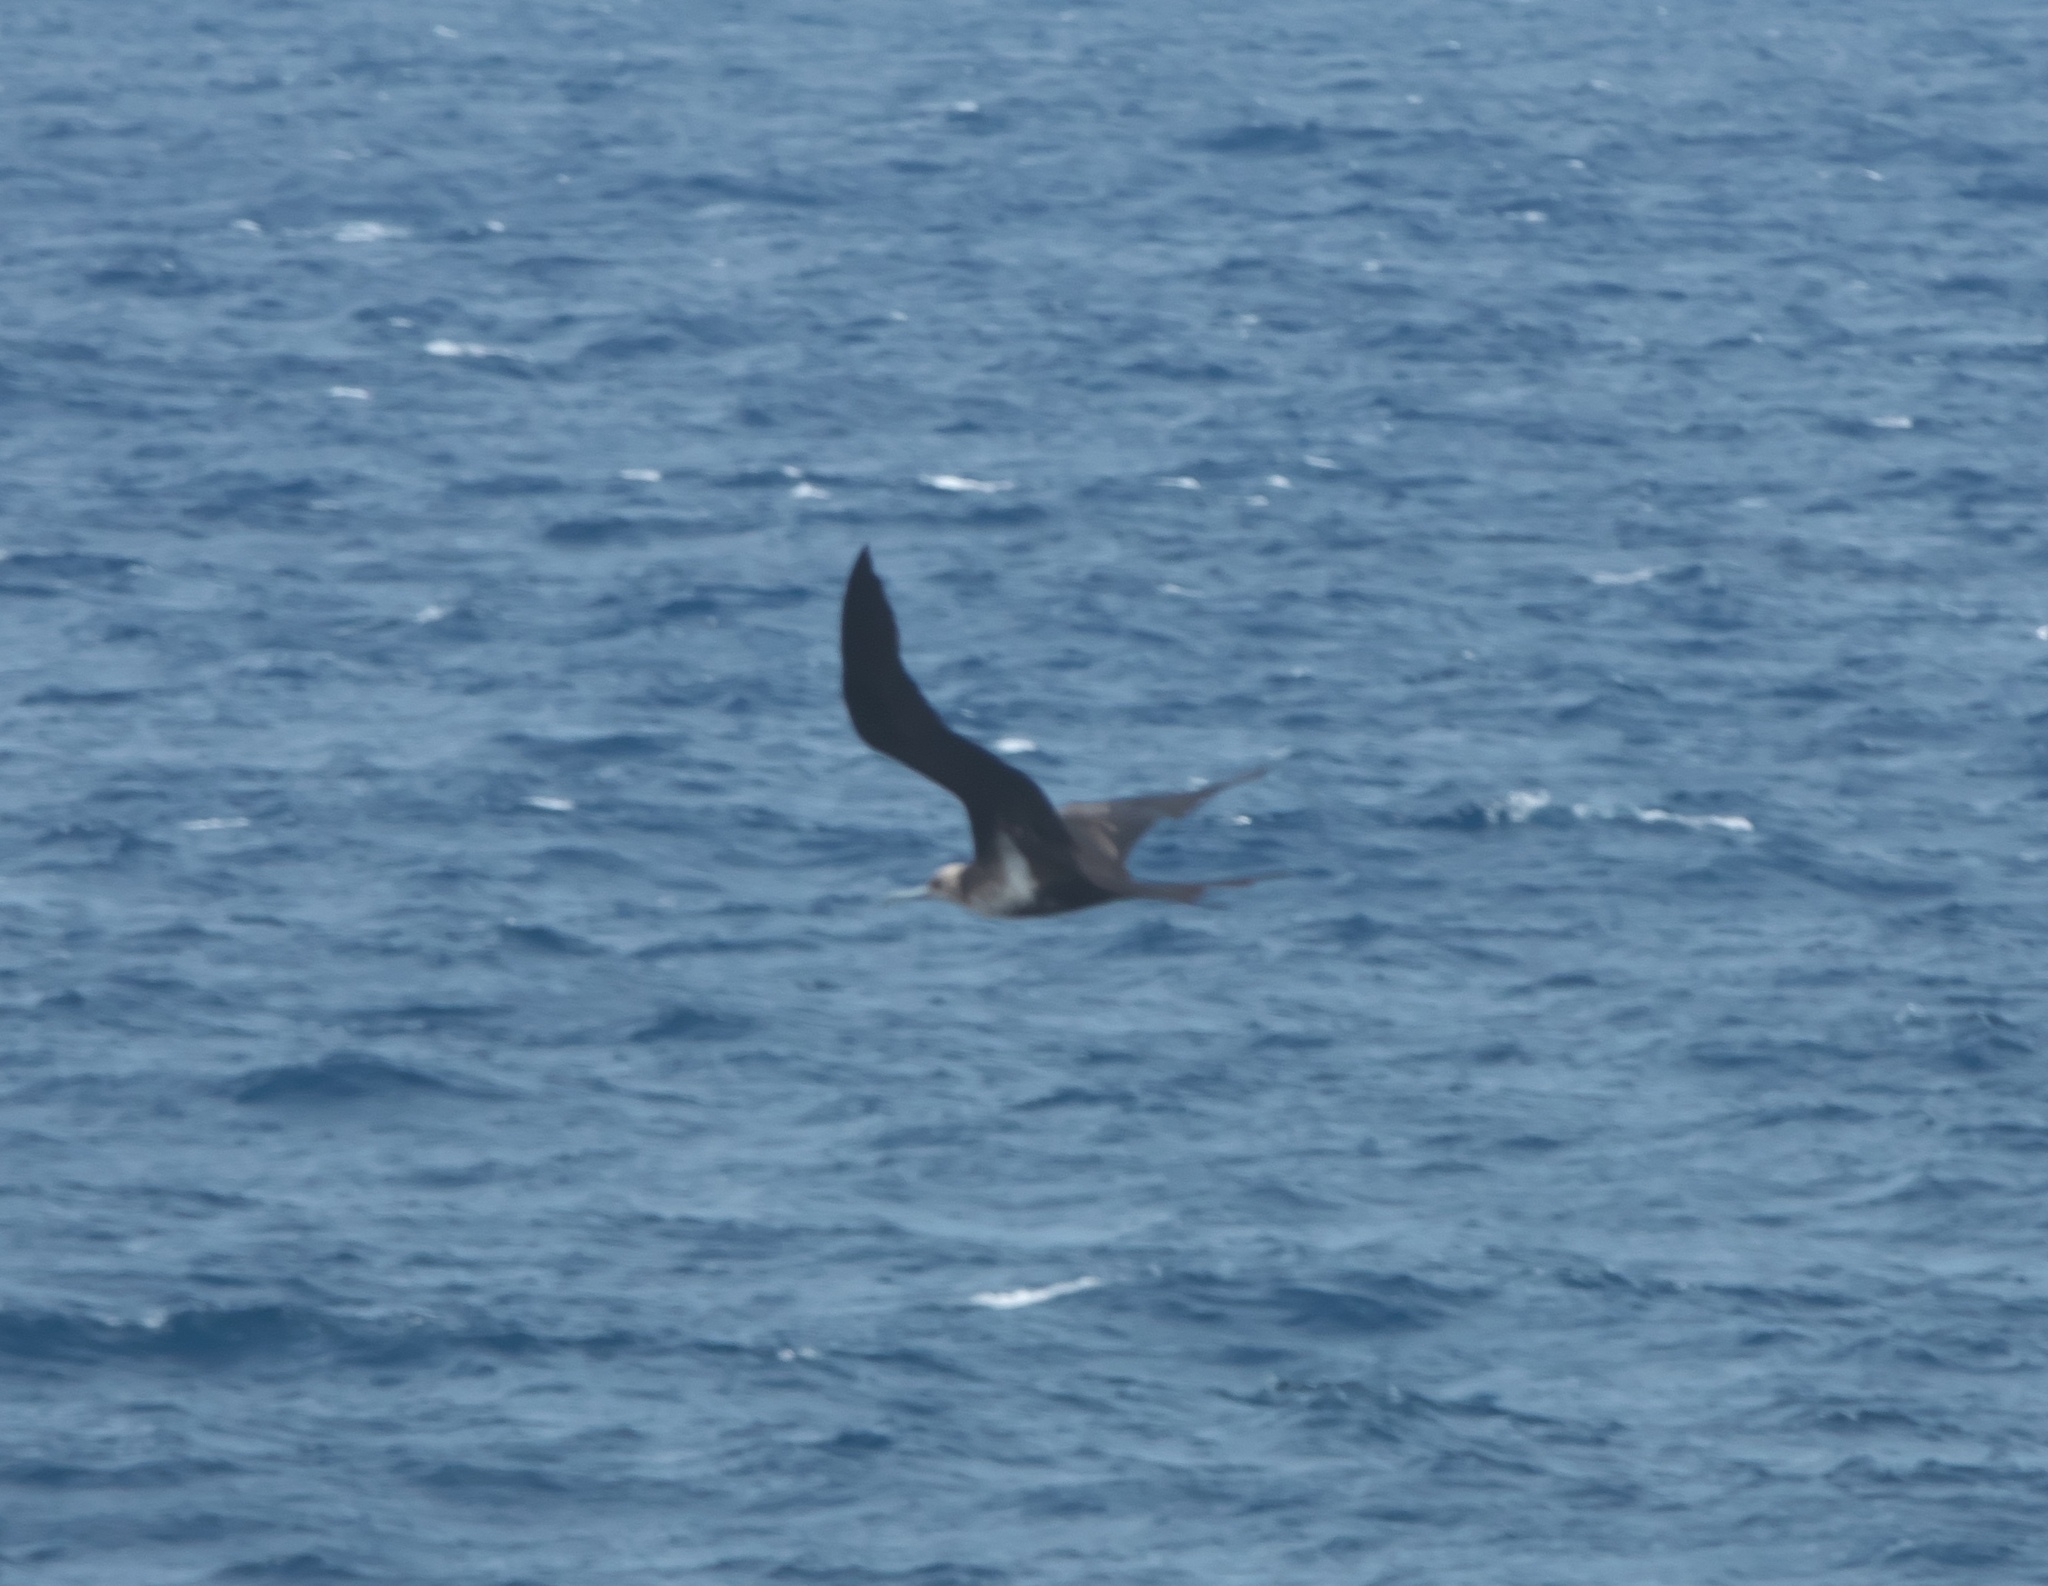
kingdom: Animalia
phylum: Chordata
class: Aves
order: Suliformes
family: Fregatidae
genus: Fregata
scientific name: Fregata ariel
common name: Lesser frigatebird
